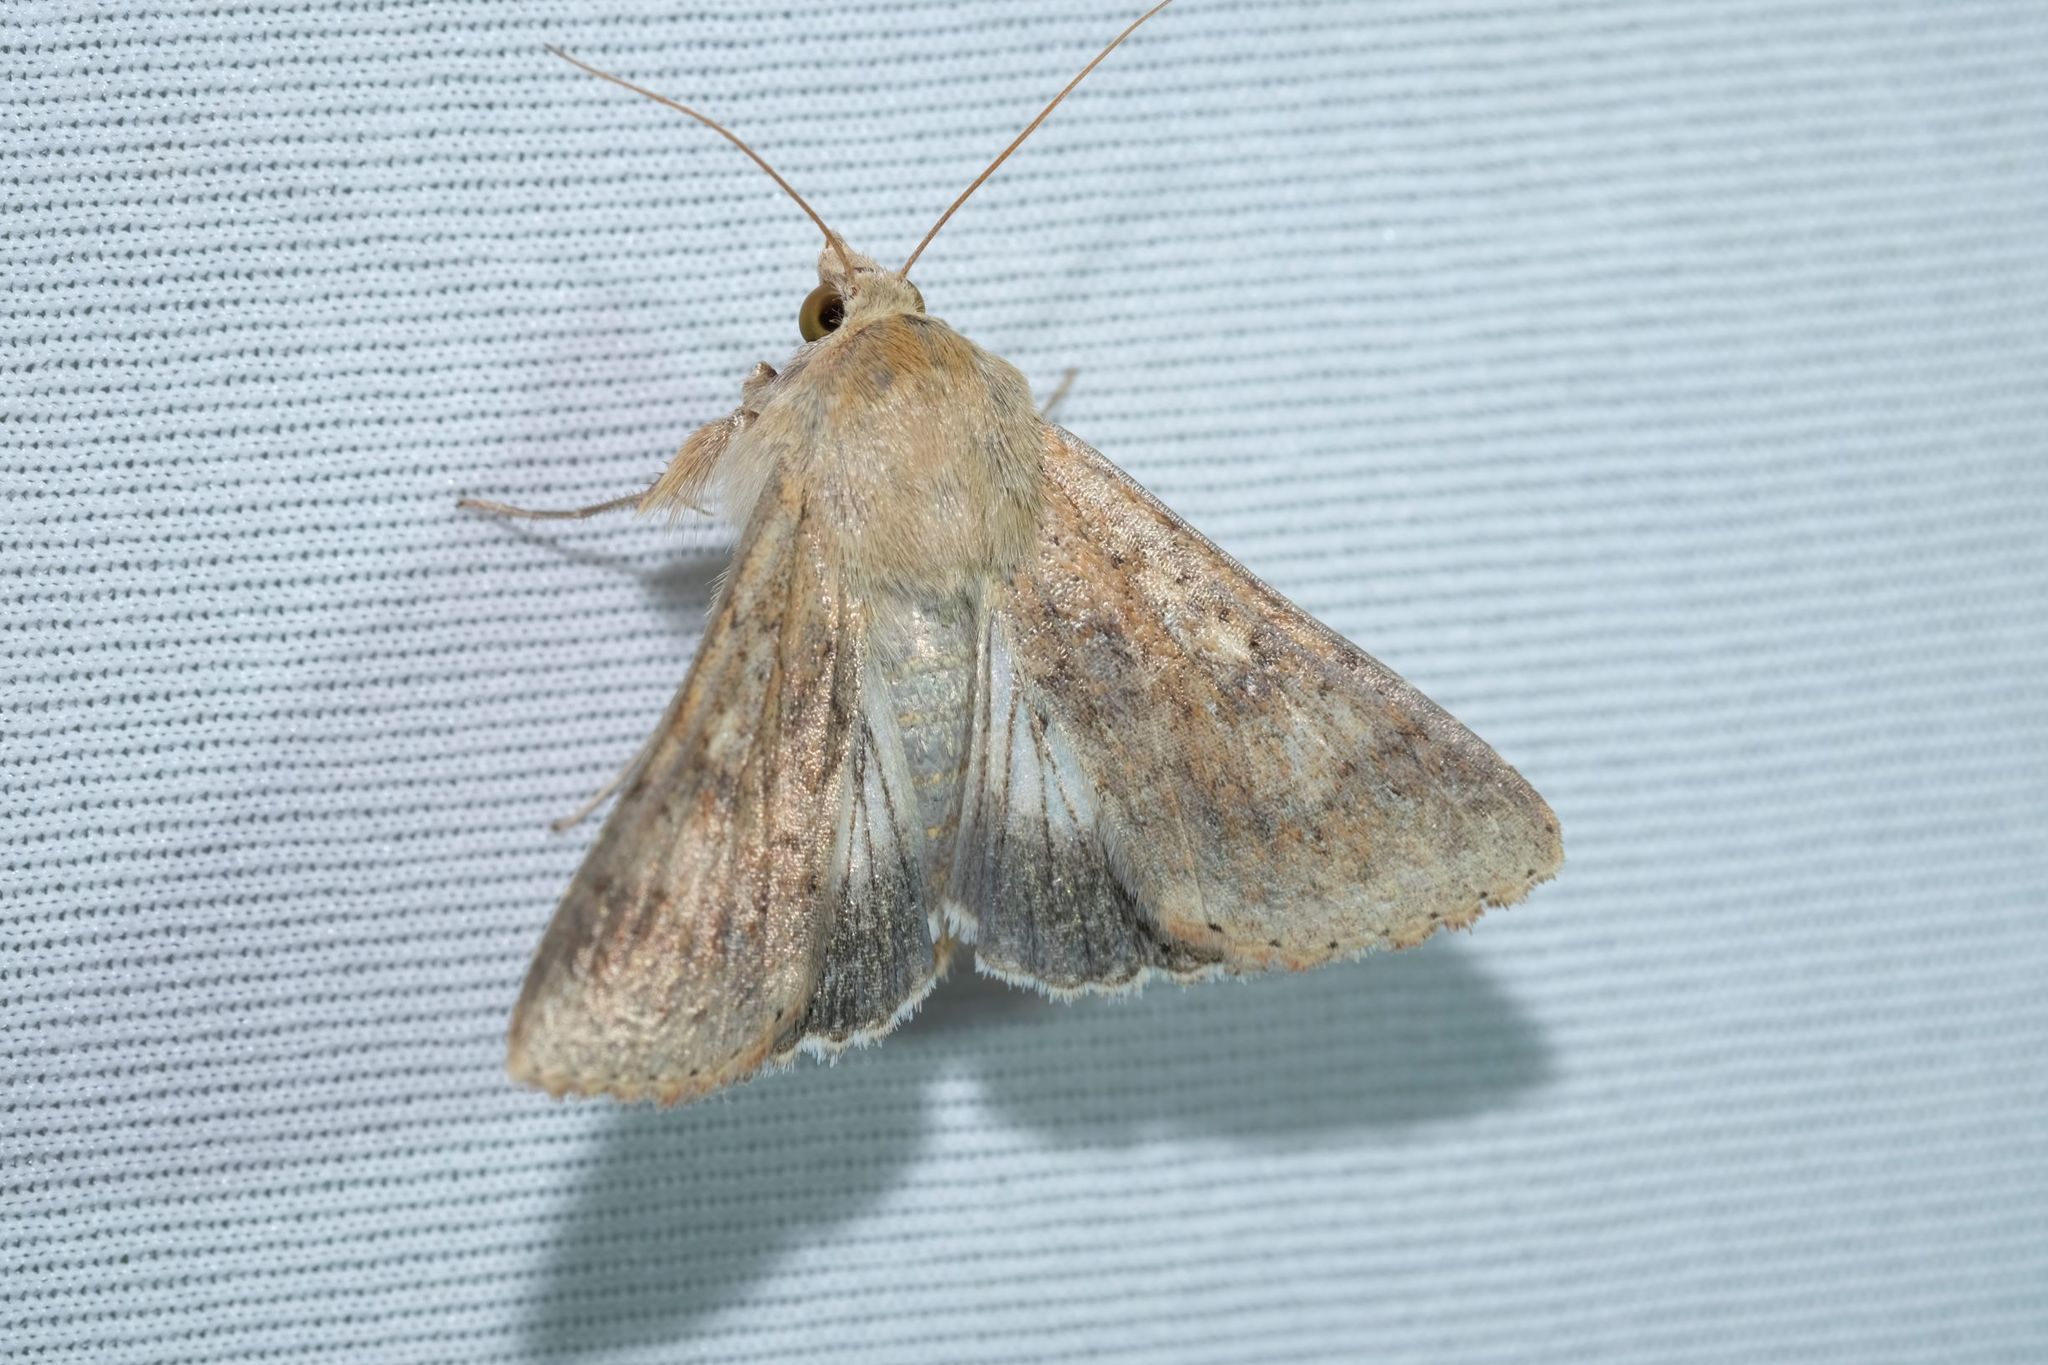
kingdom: Animalia
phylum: Arthropoda
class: Insecta
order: Lepidoptera
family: Noctuidae
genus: Helicoverpa
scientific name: Helicoverpa punctigera
